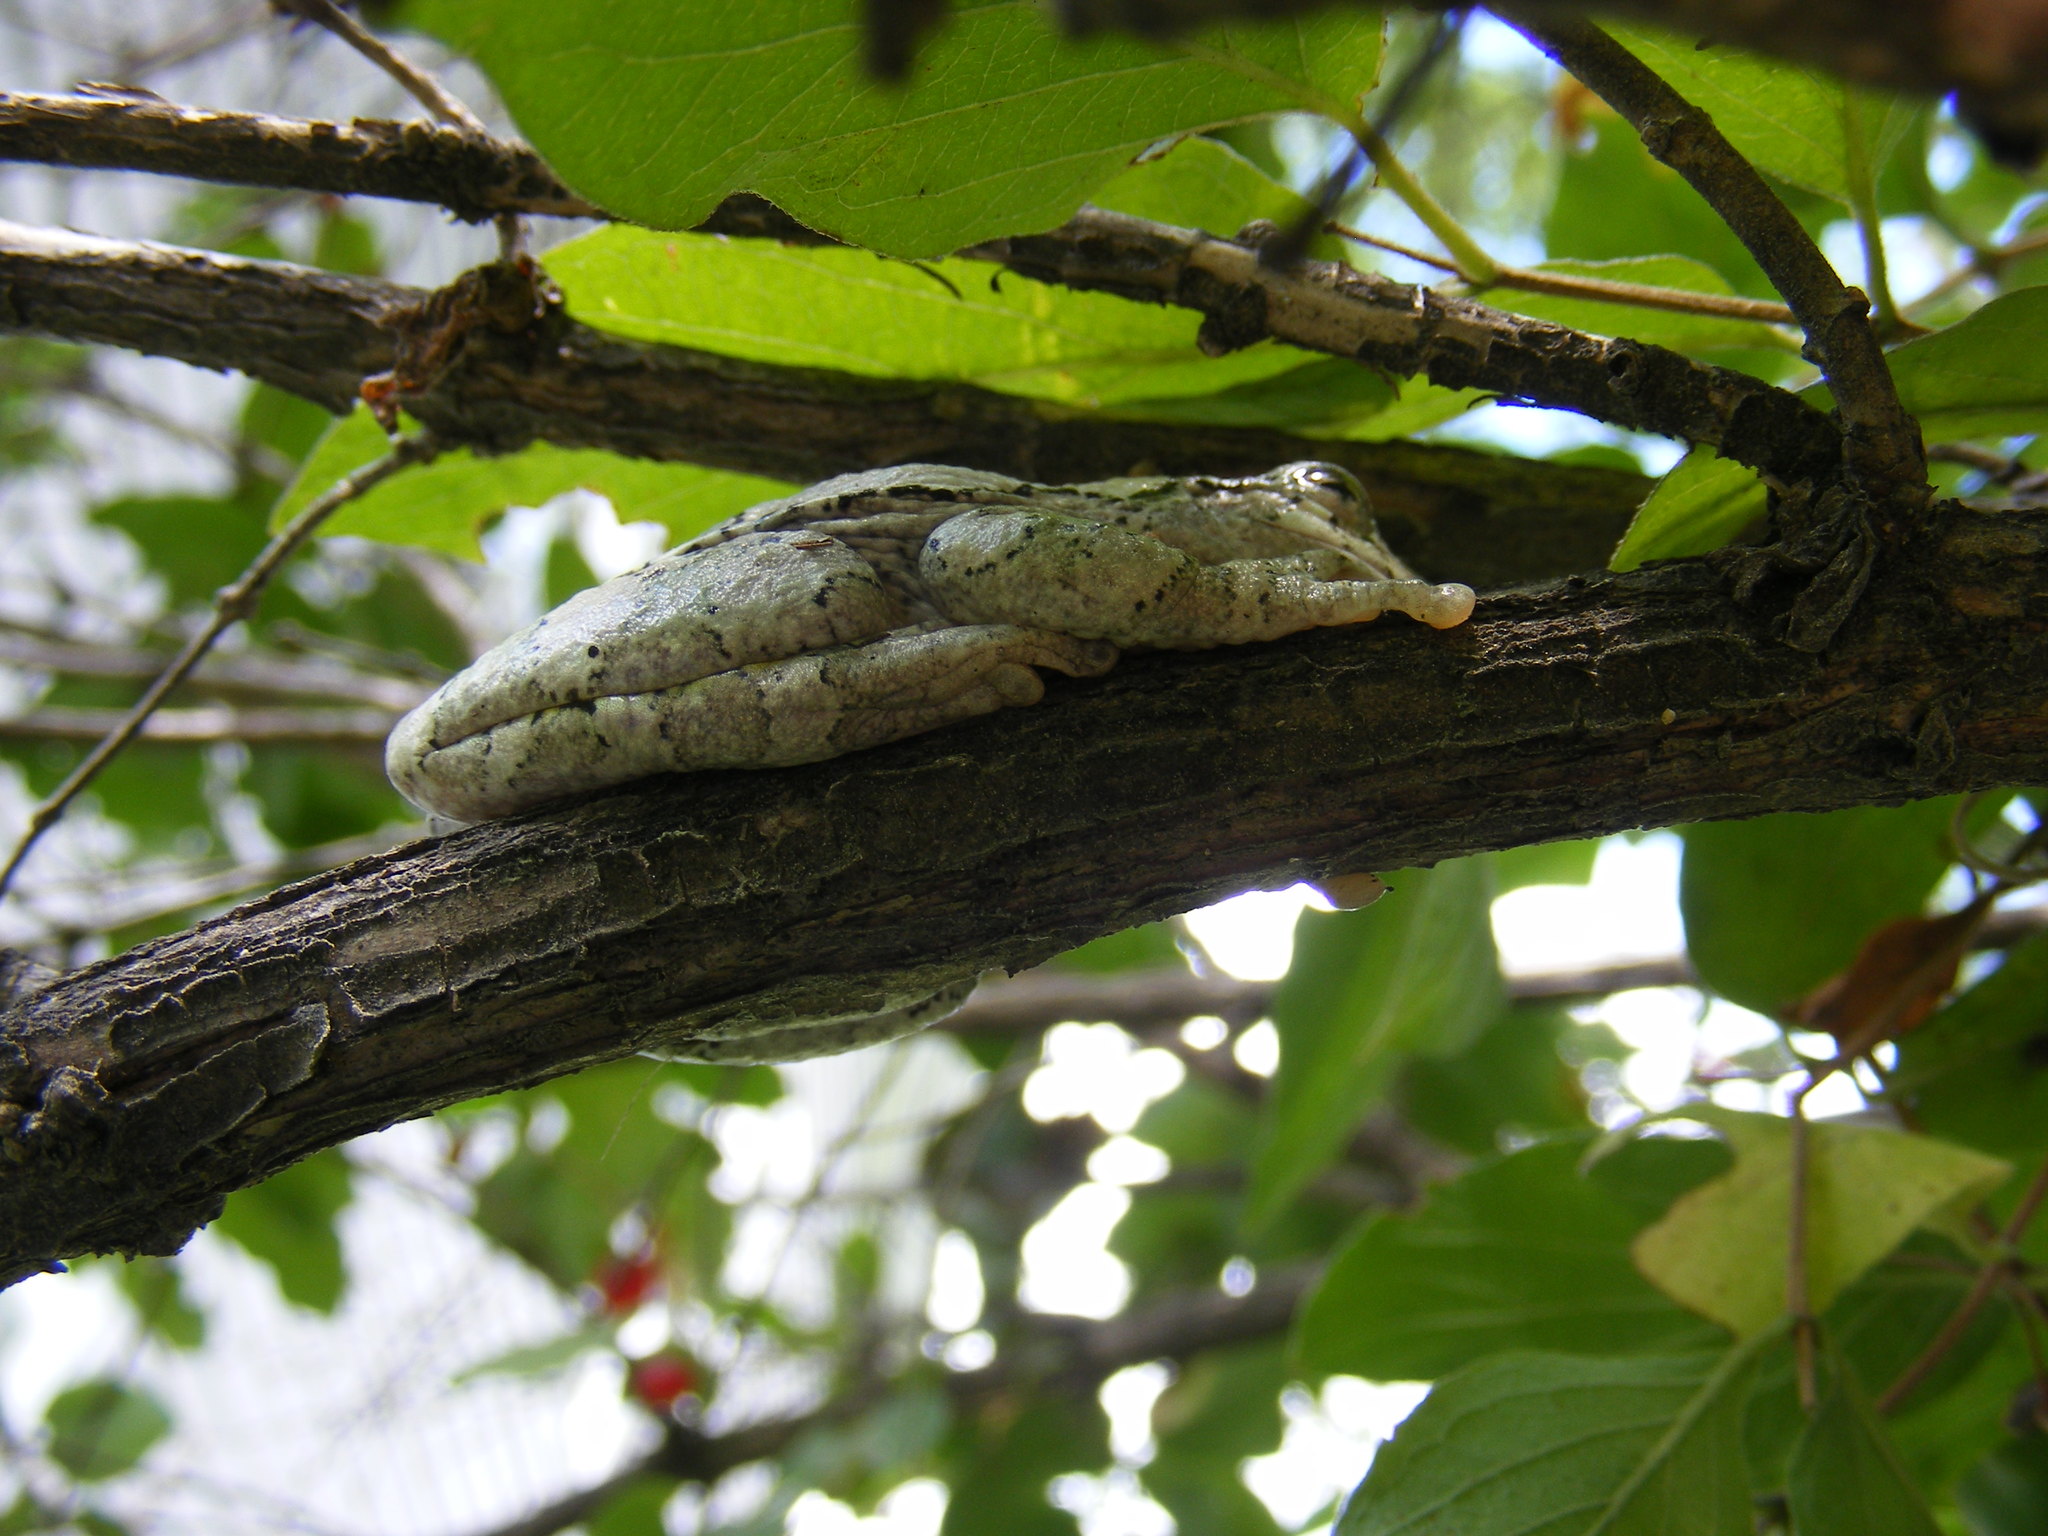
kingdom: Animalia
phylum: Chordata
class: Amphibia
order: Anura
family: Hylidae
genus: Dryophytes
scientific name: Dryophytes versicolor
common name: Gray treefrog
